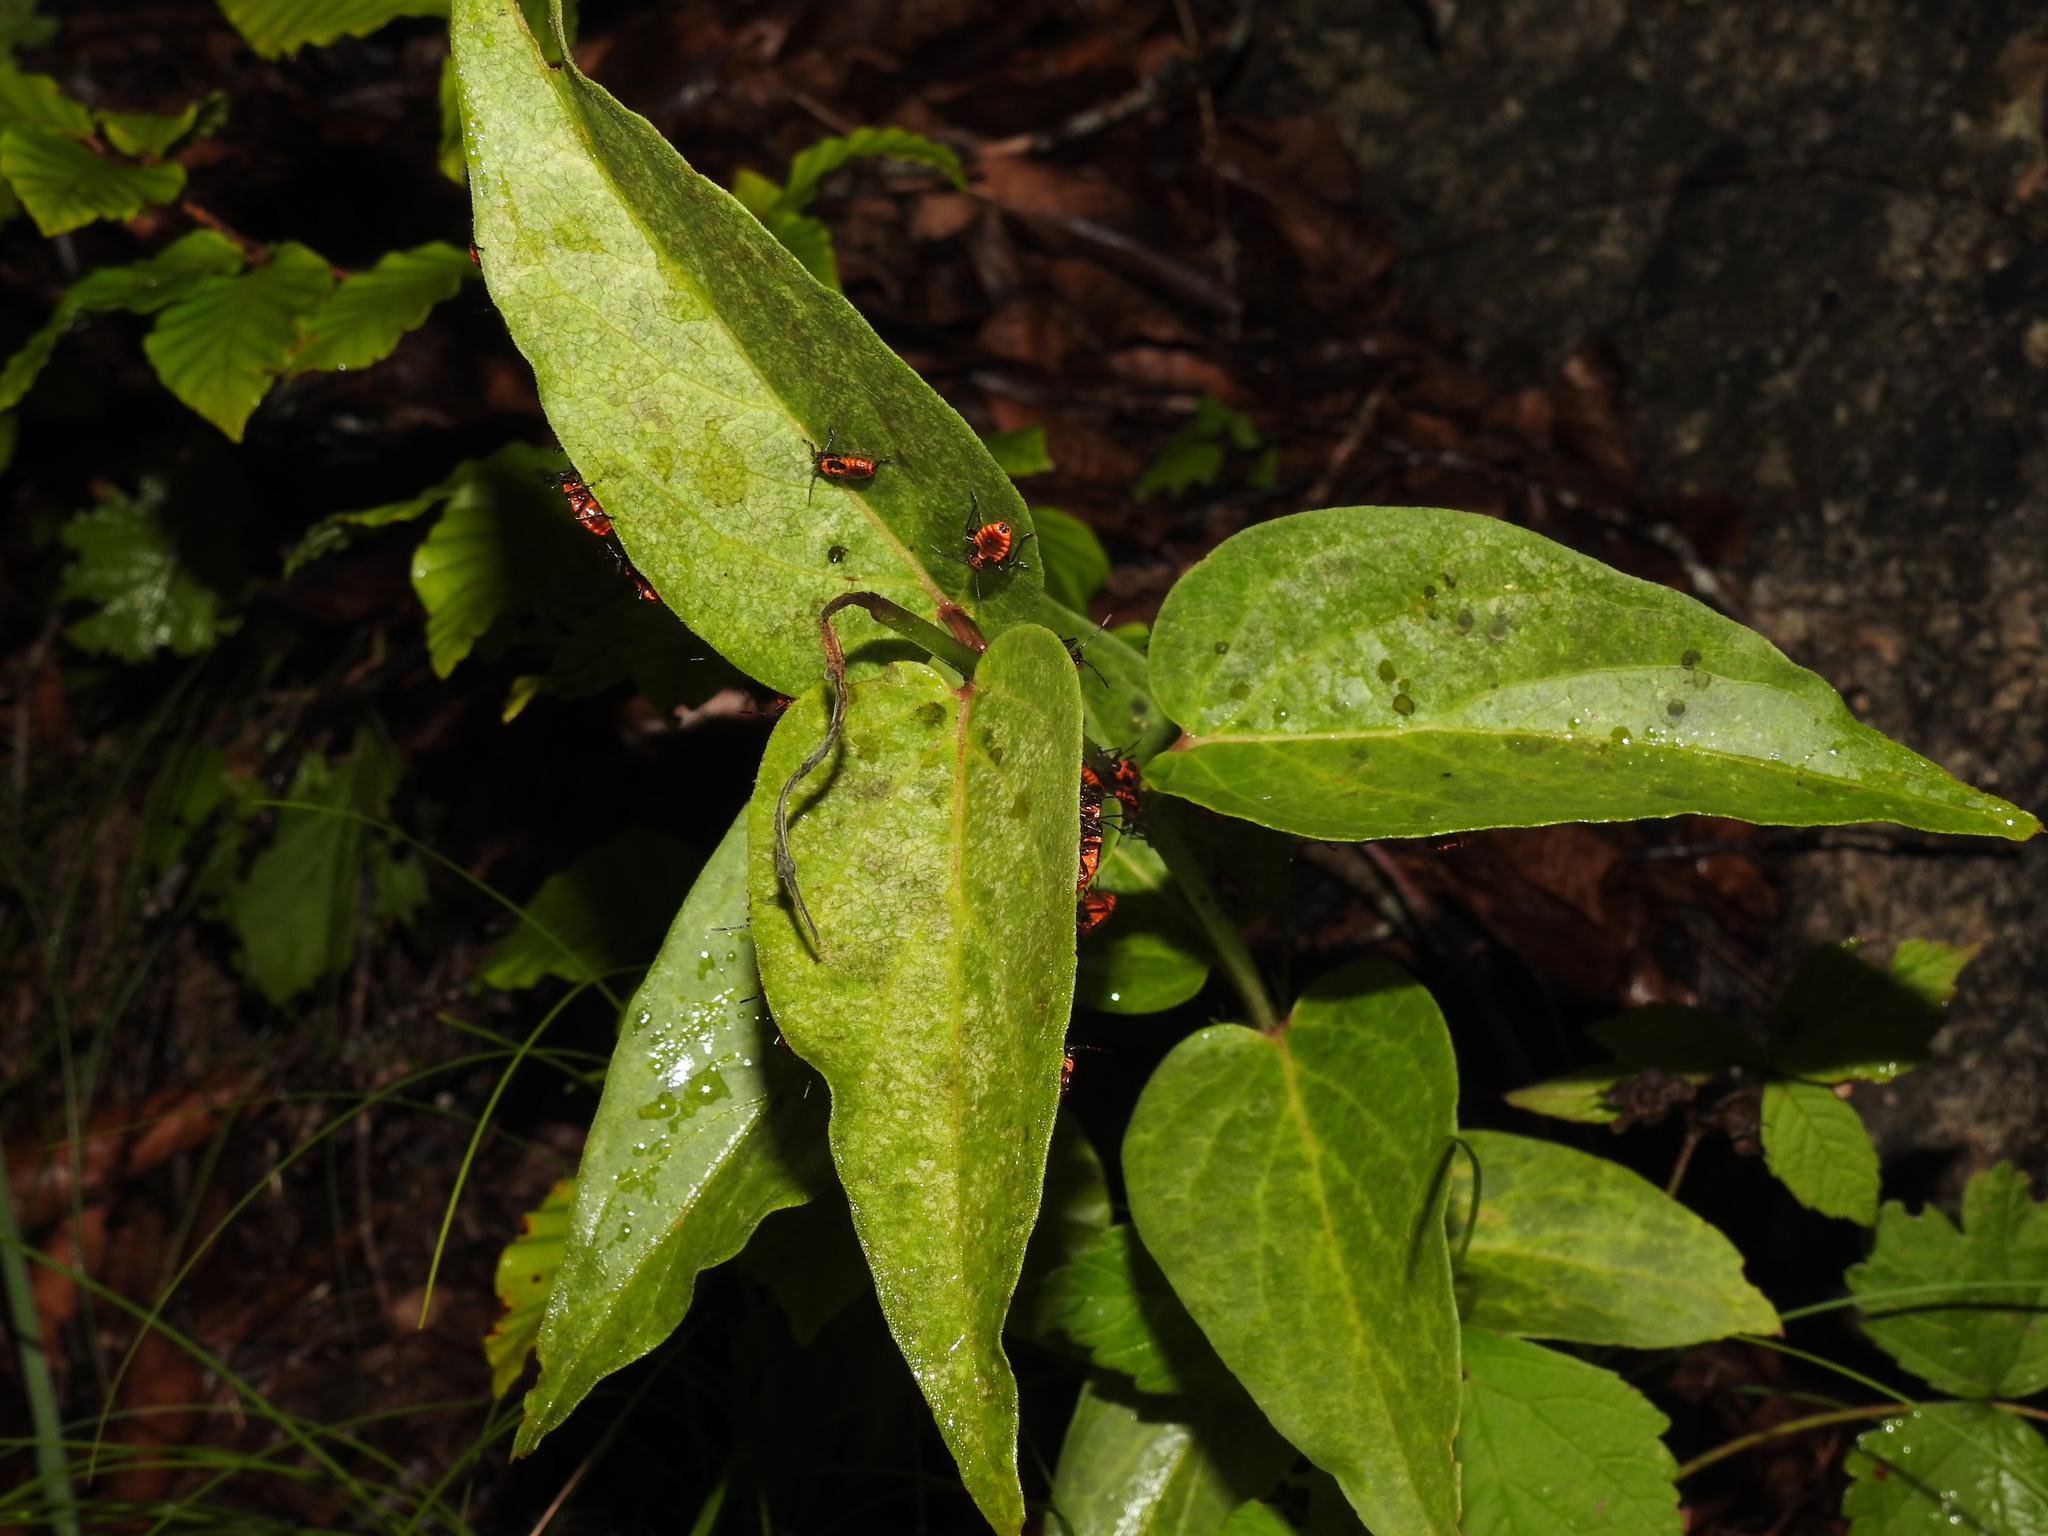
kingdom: Plantae
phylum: Tracheophyta
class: Magnoliopsida
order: Gentianales
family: Apocynaceae
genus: Vincetoxicum
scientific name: Vincetoxicum hirundinaria
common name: White swallowwort
